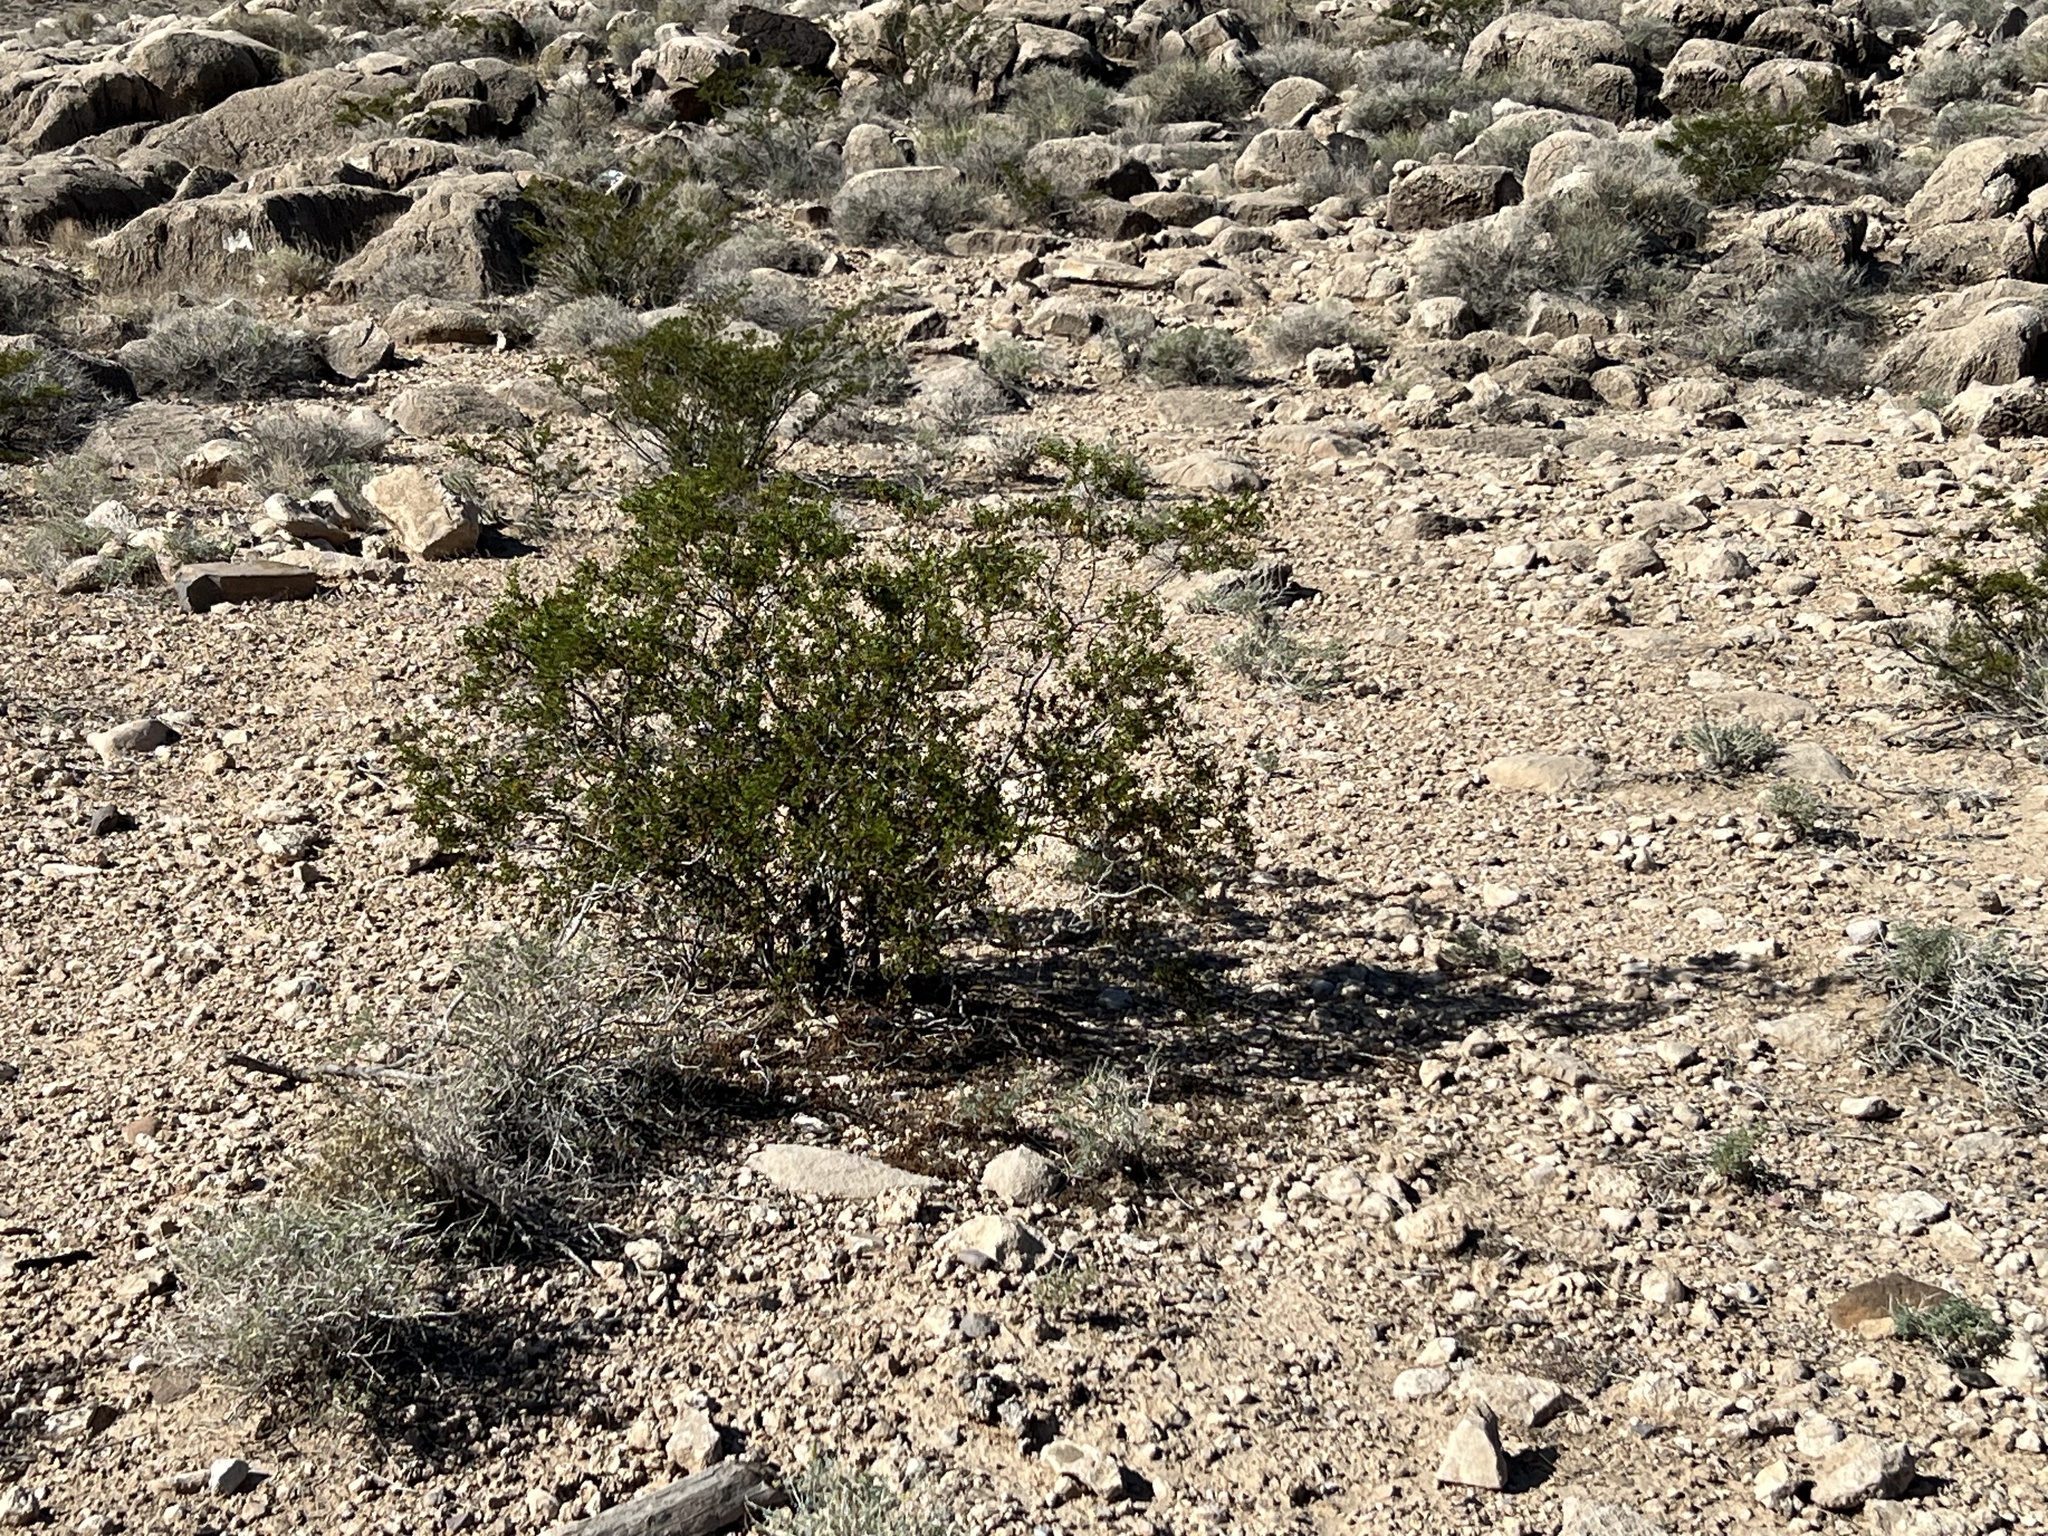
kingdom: Plantae
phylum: Tracheophyta
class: Magnoliopsida
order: Zygophyllales
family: Zygophyllaceae
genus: Larrea
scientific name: Larrea tridentata
